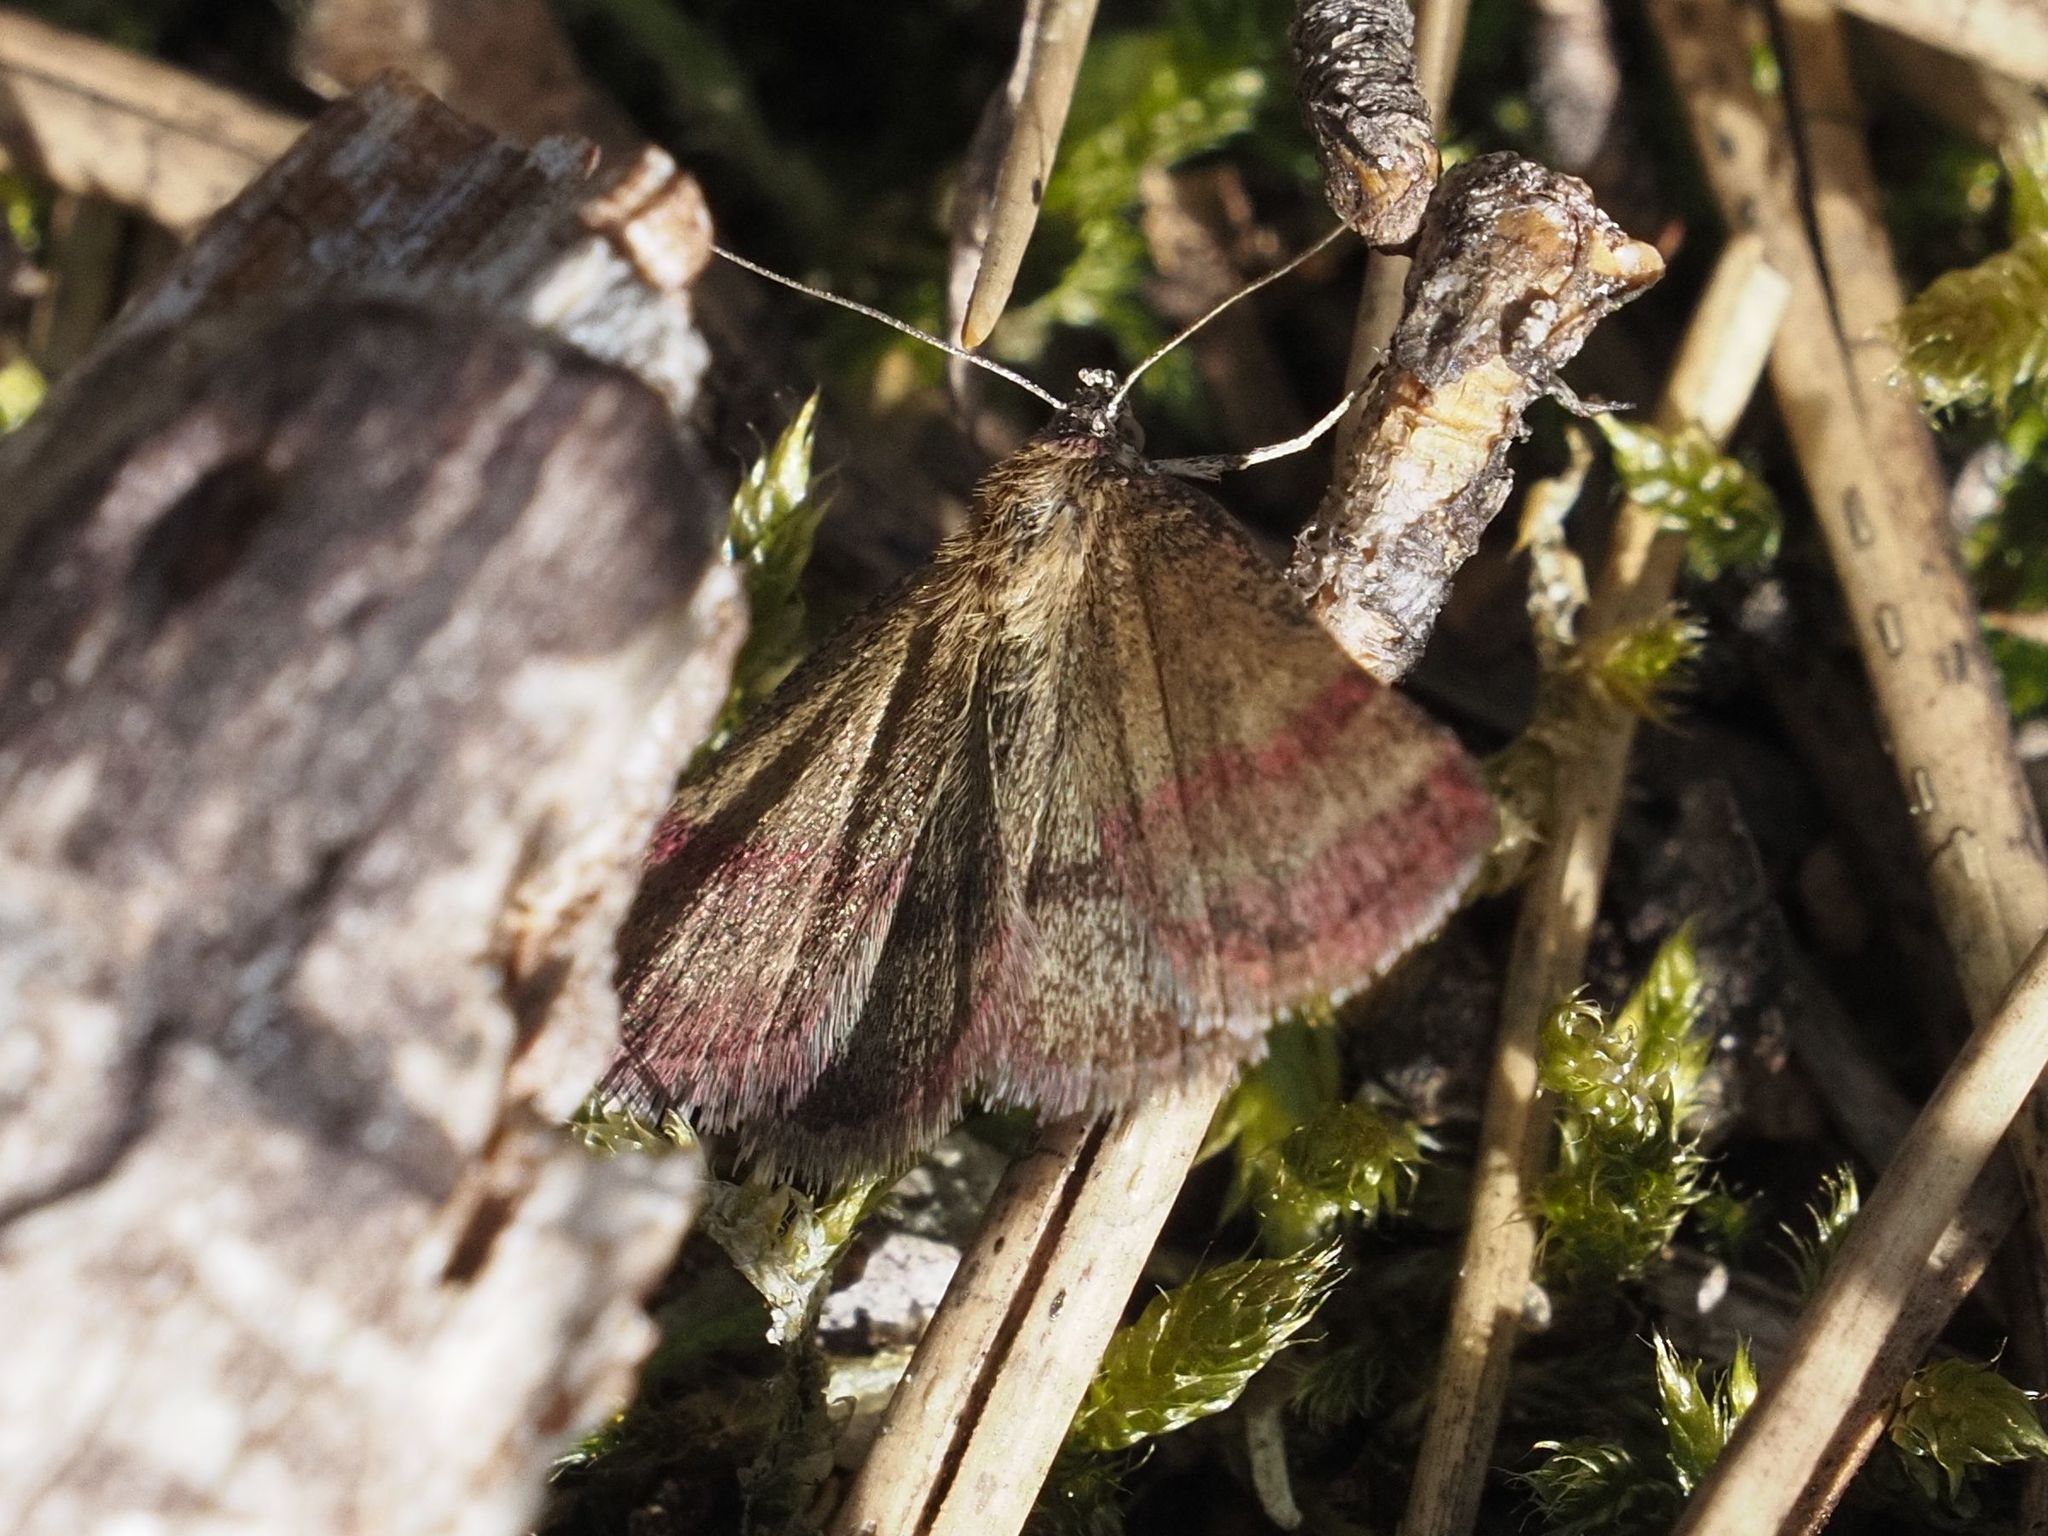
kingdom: Animalia
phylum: Arthropoda
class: Insecta
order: Lepidoptera
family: Erebidae
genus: Phytometra
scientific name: Phytometra viridaria
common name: Small purple-barred
